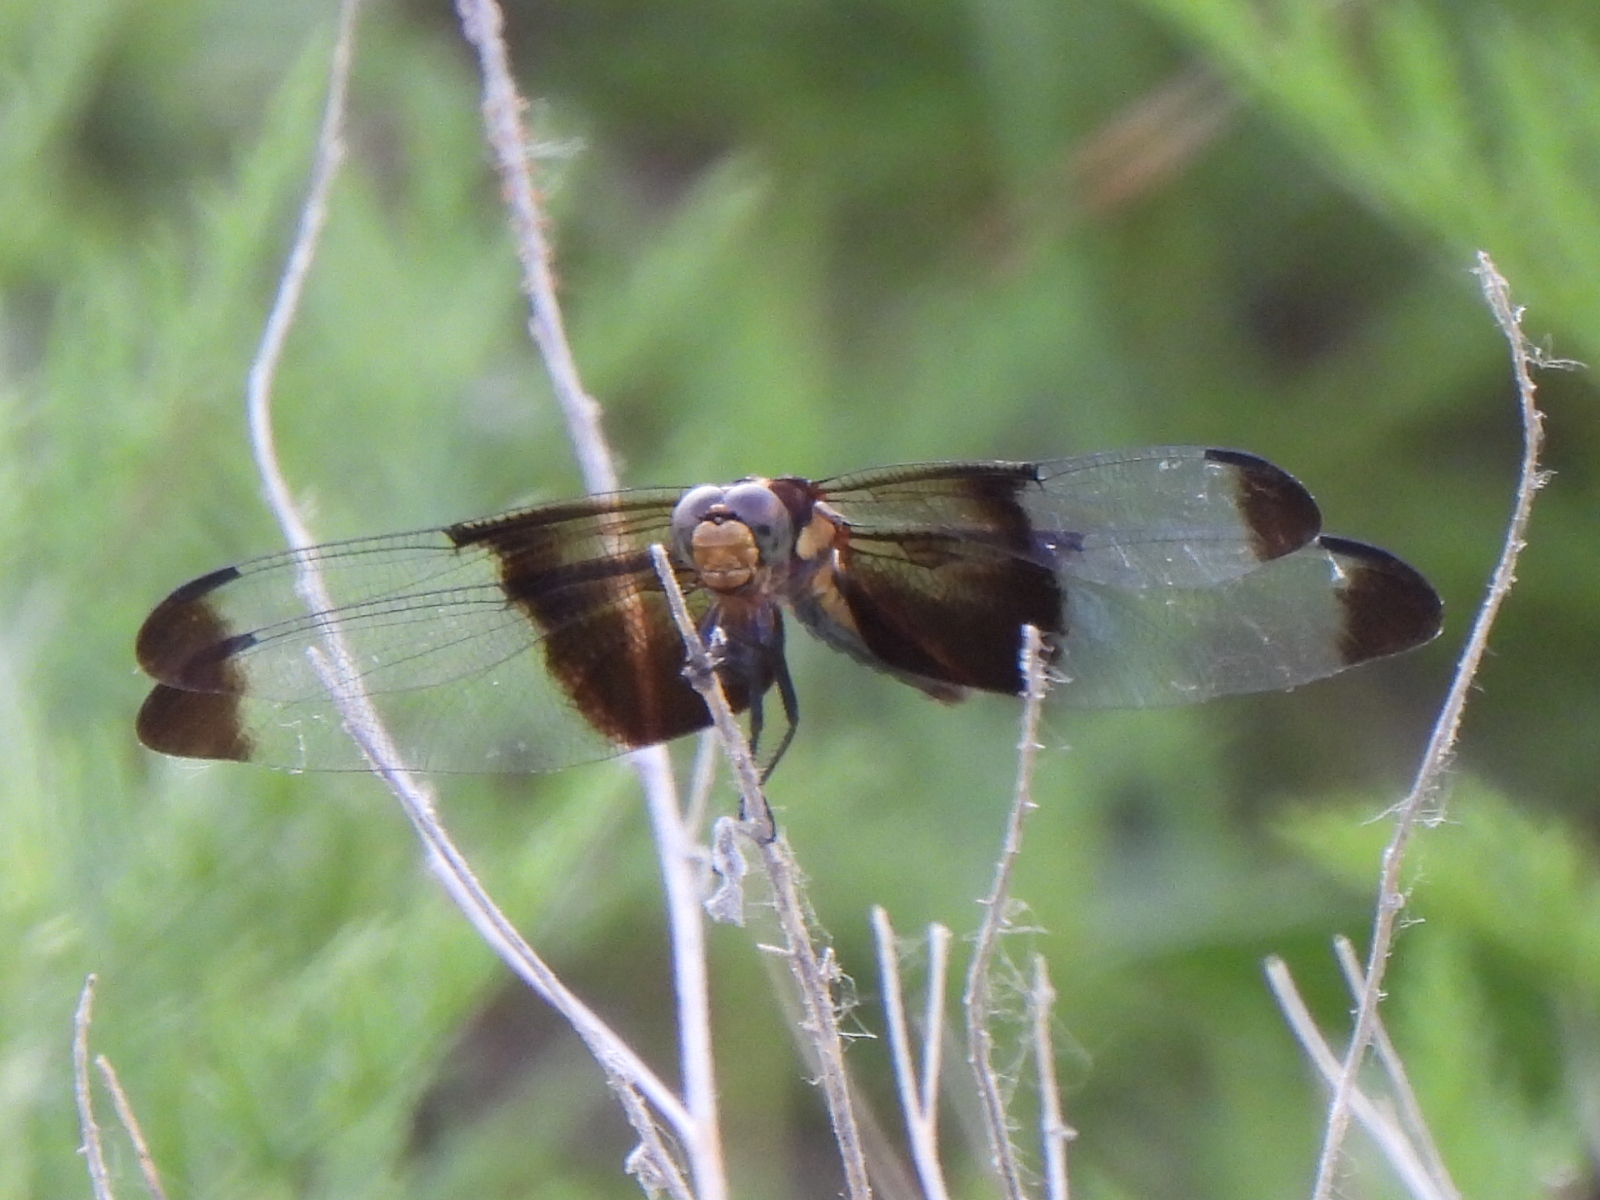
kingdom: Animalia
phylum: Arthropoda
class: Insecta
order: Odonata
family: Libellulidae
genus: Libellula
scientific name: Libellula luctuosa
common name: Widow skimmer
